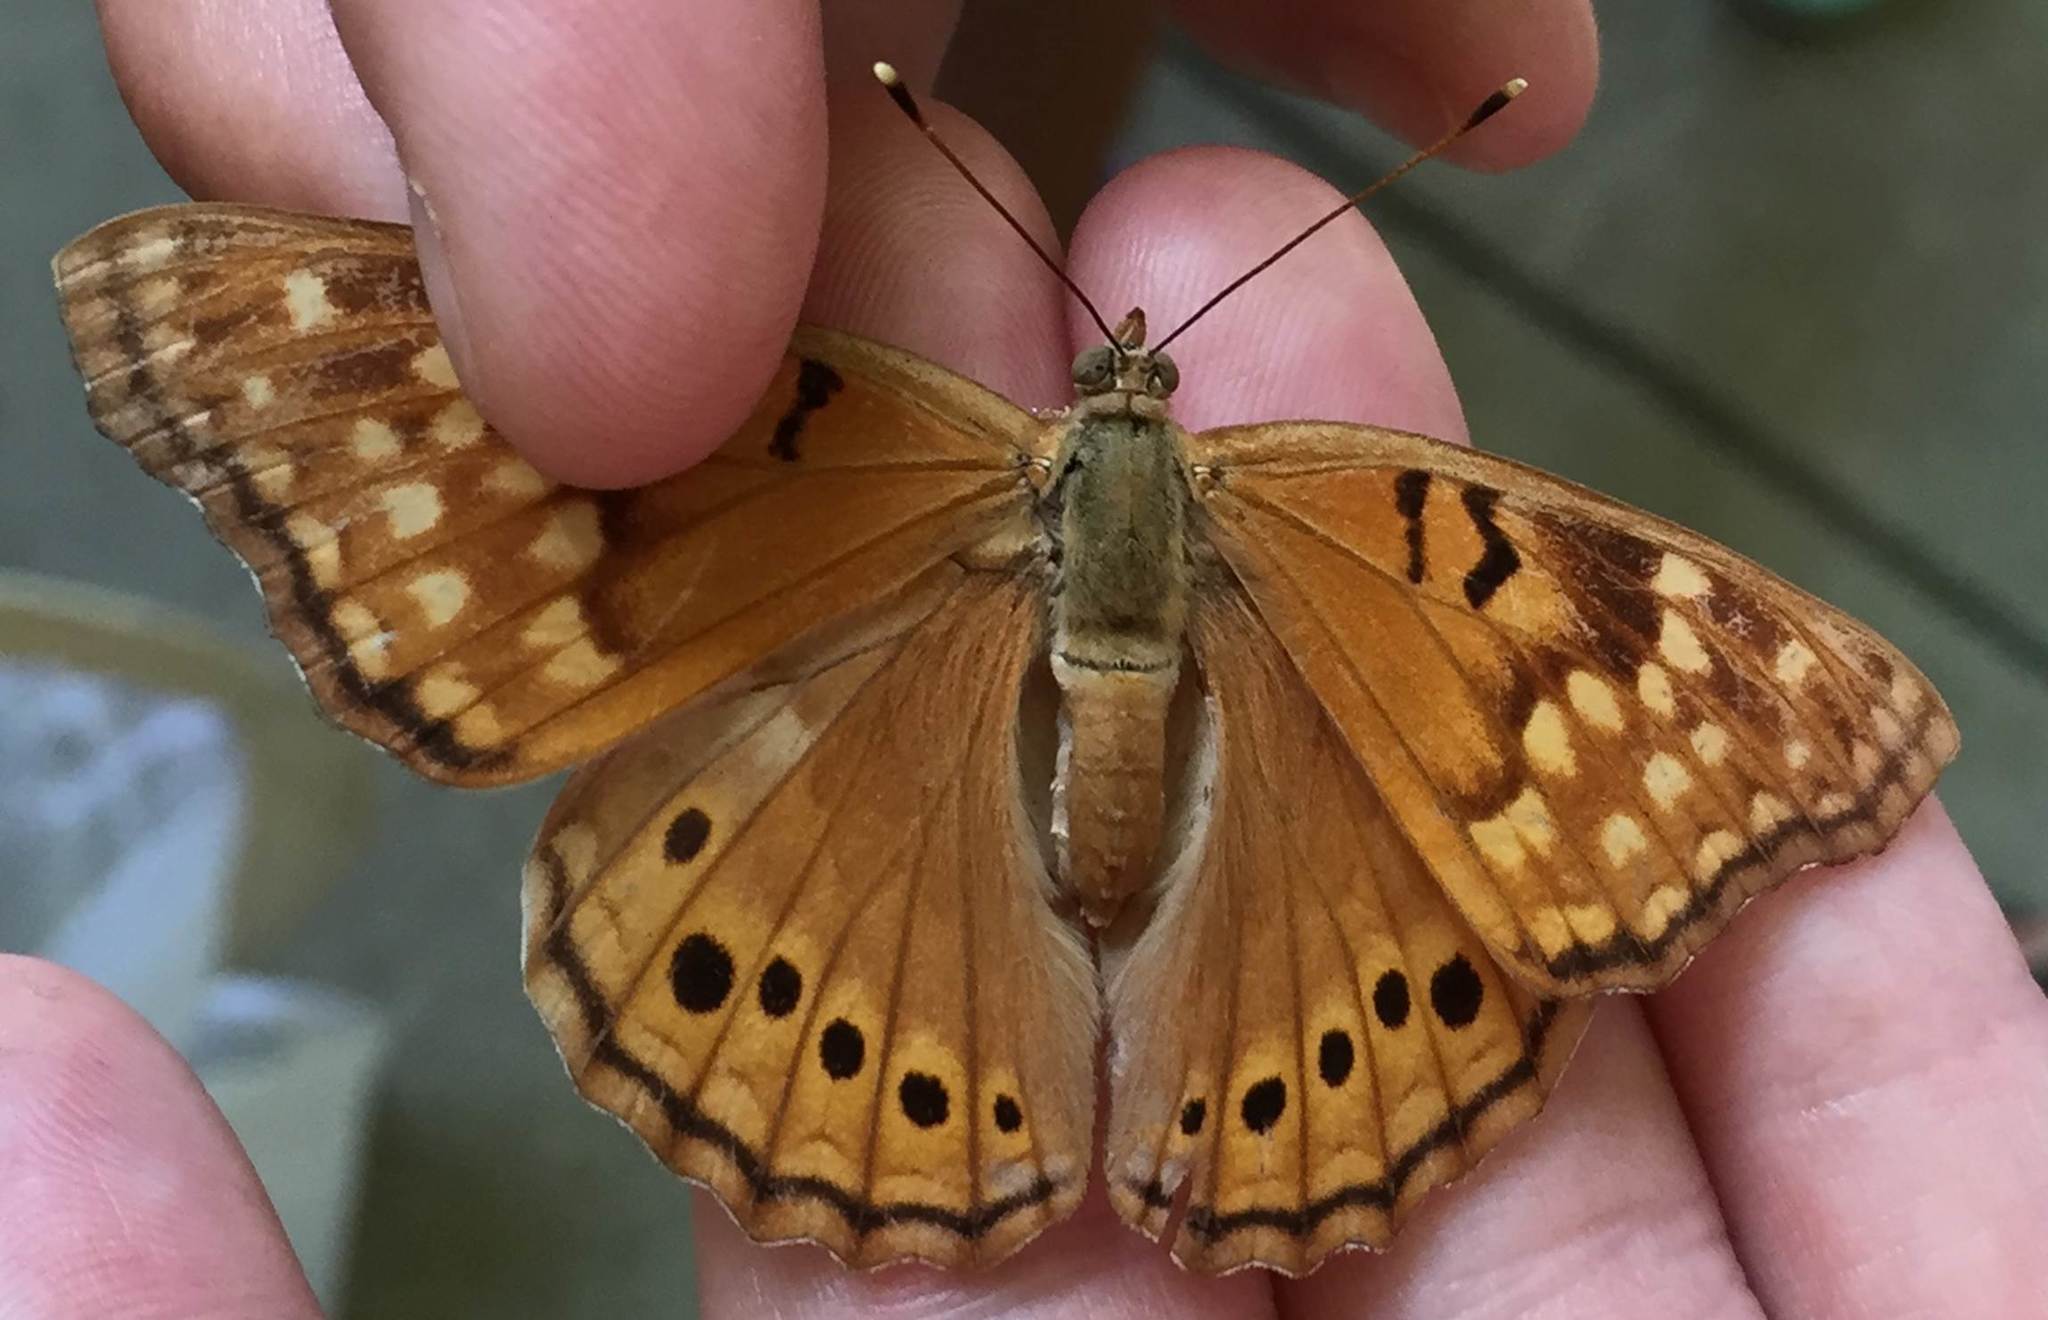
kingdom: Animalia
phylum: Arthropoda
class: Insecta
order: Lepidoptera
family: Nymphalidae
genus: Asterocampa
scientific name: Asterocampa clyton
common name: Tawny emperor
